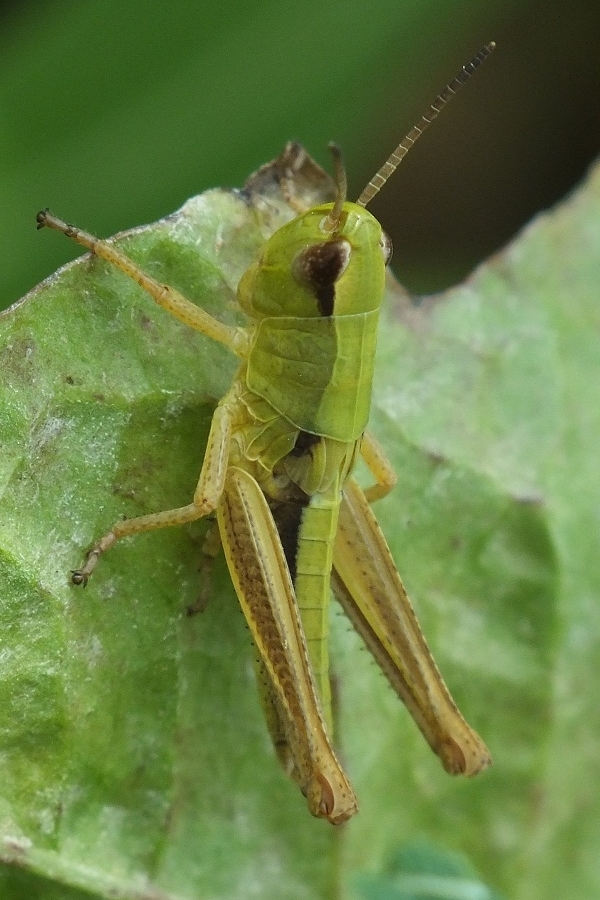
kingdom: Animalia
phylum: Arthropoda
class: Insecta
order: Orthoptera
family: Acrididae
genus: Pseudochorthippus
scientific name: Pseudochorthippus parallelus
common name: Meadow grasshopper
